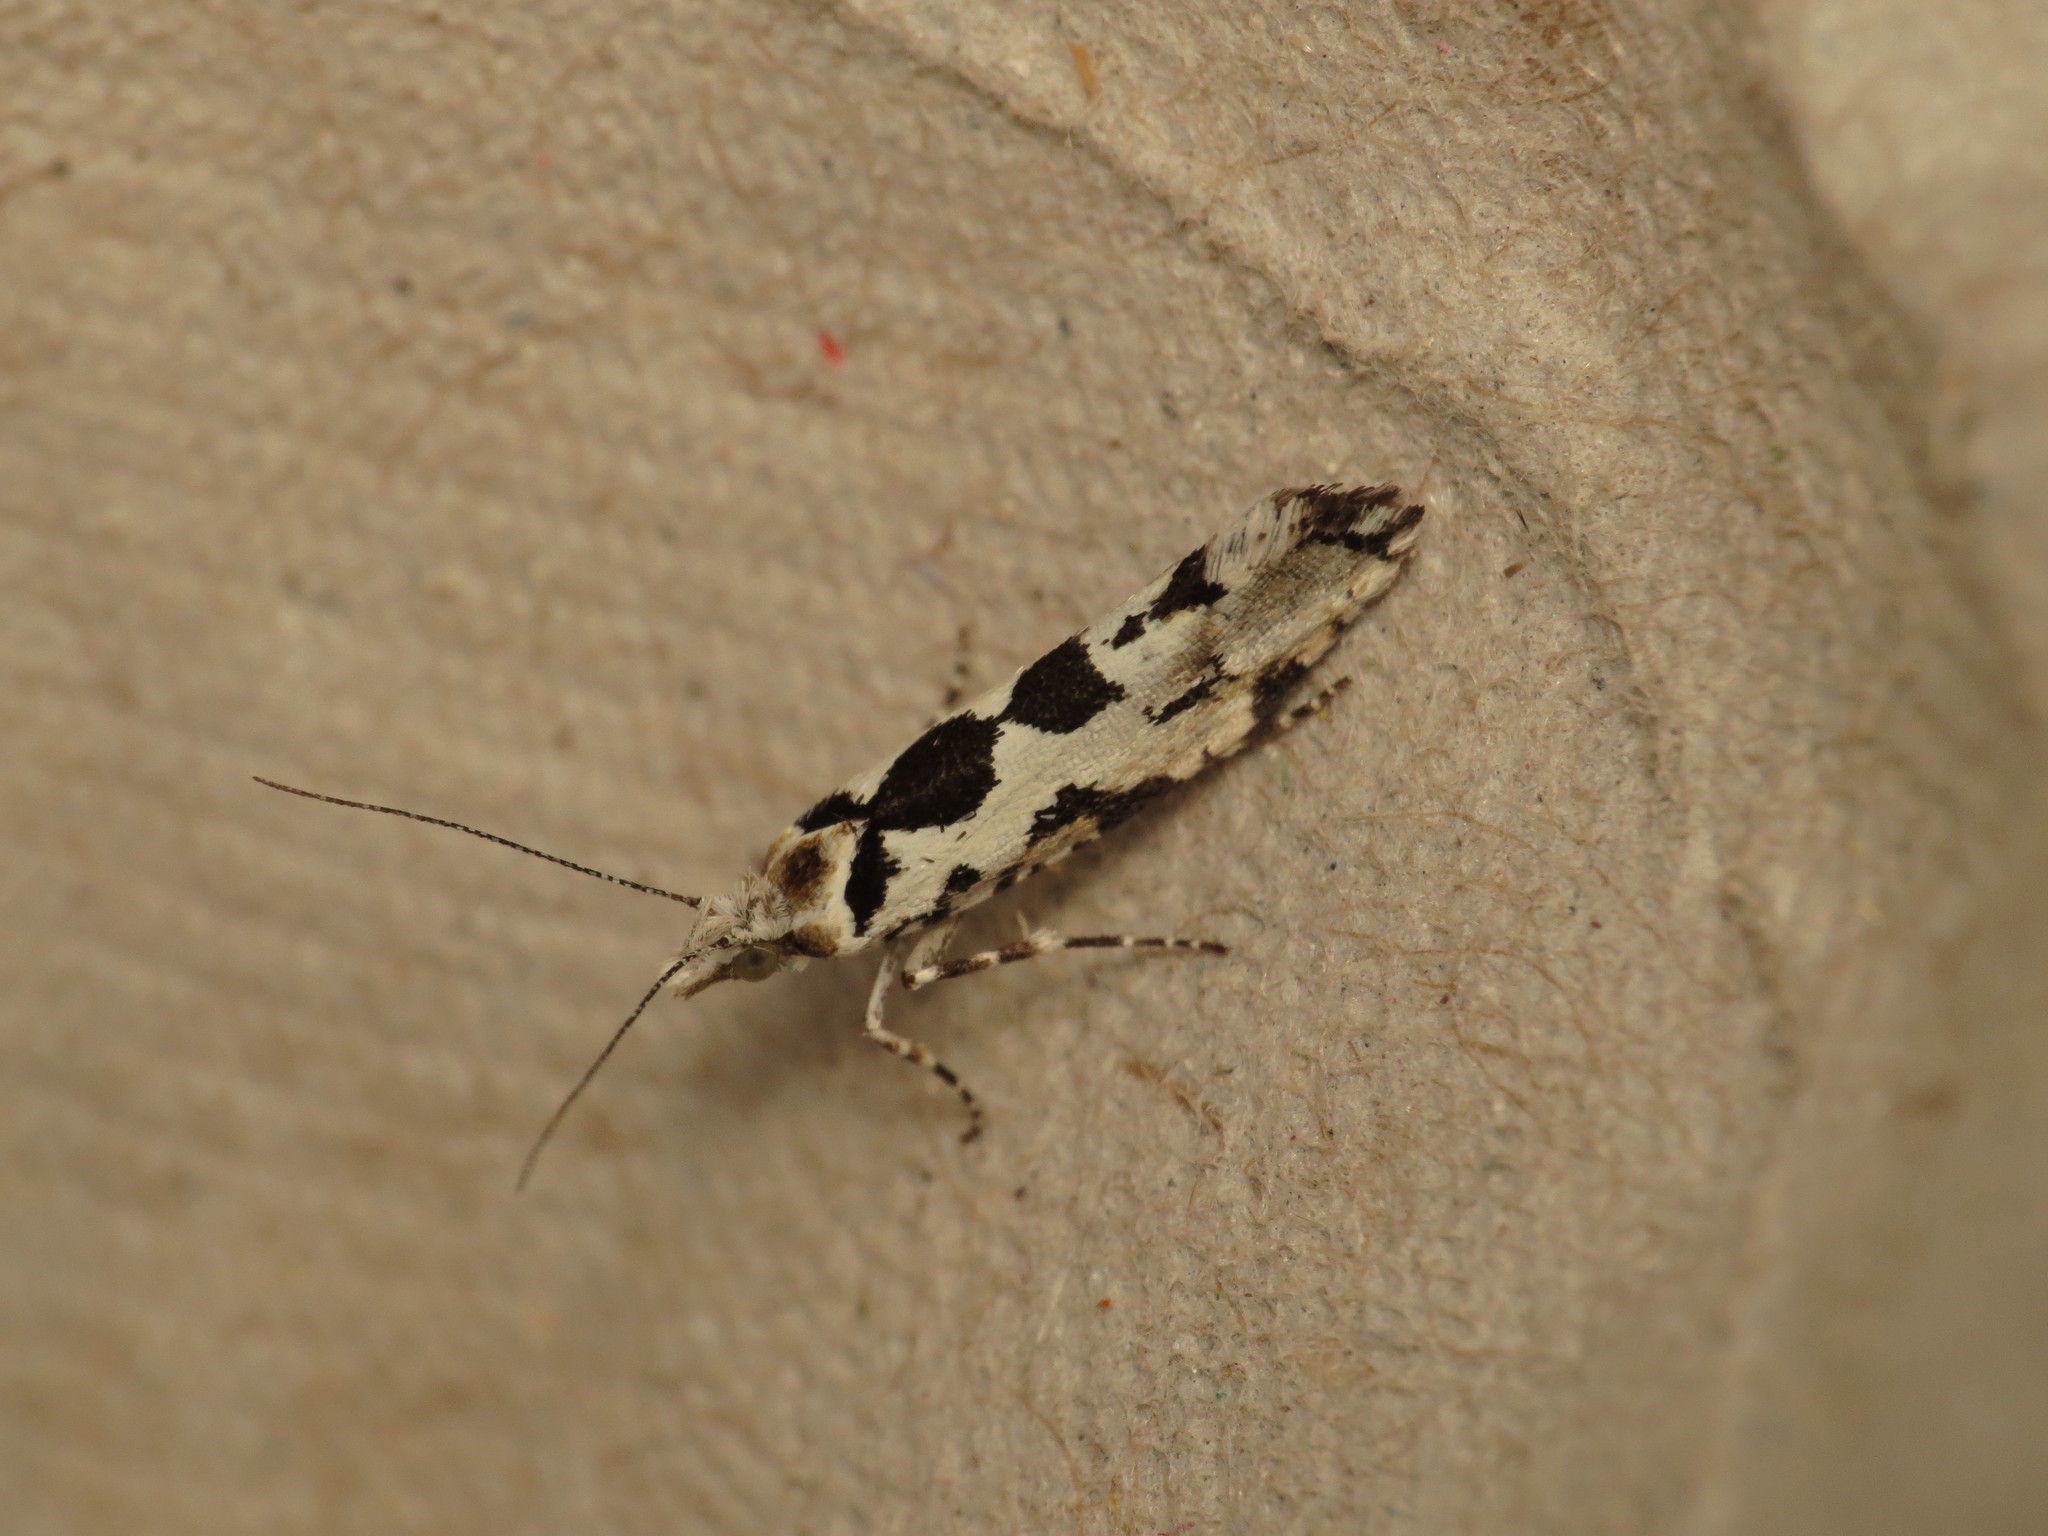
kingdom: Animalia
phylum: Arthropoda
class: Insecta
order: Lepidoptera
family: Plutellidae
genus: Ypsolophus
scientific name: Ypsolophus sequella
